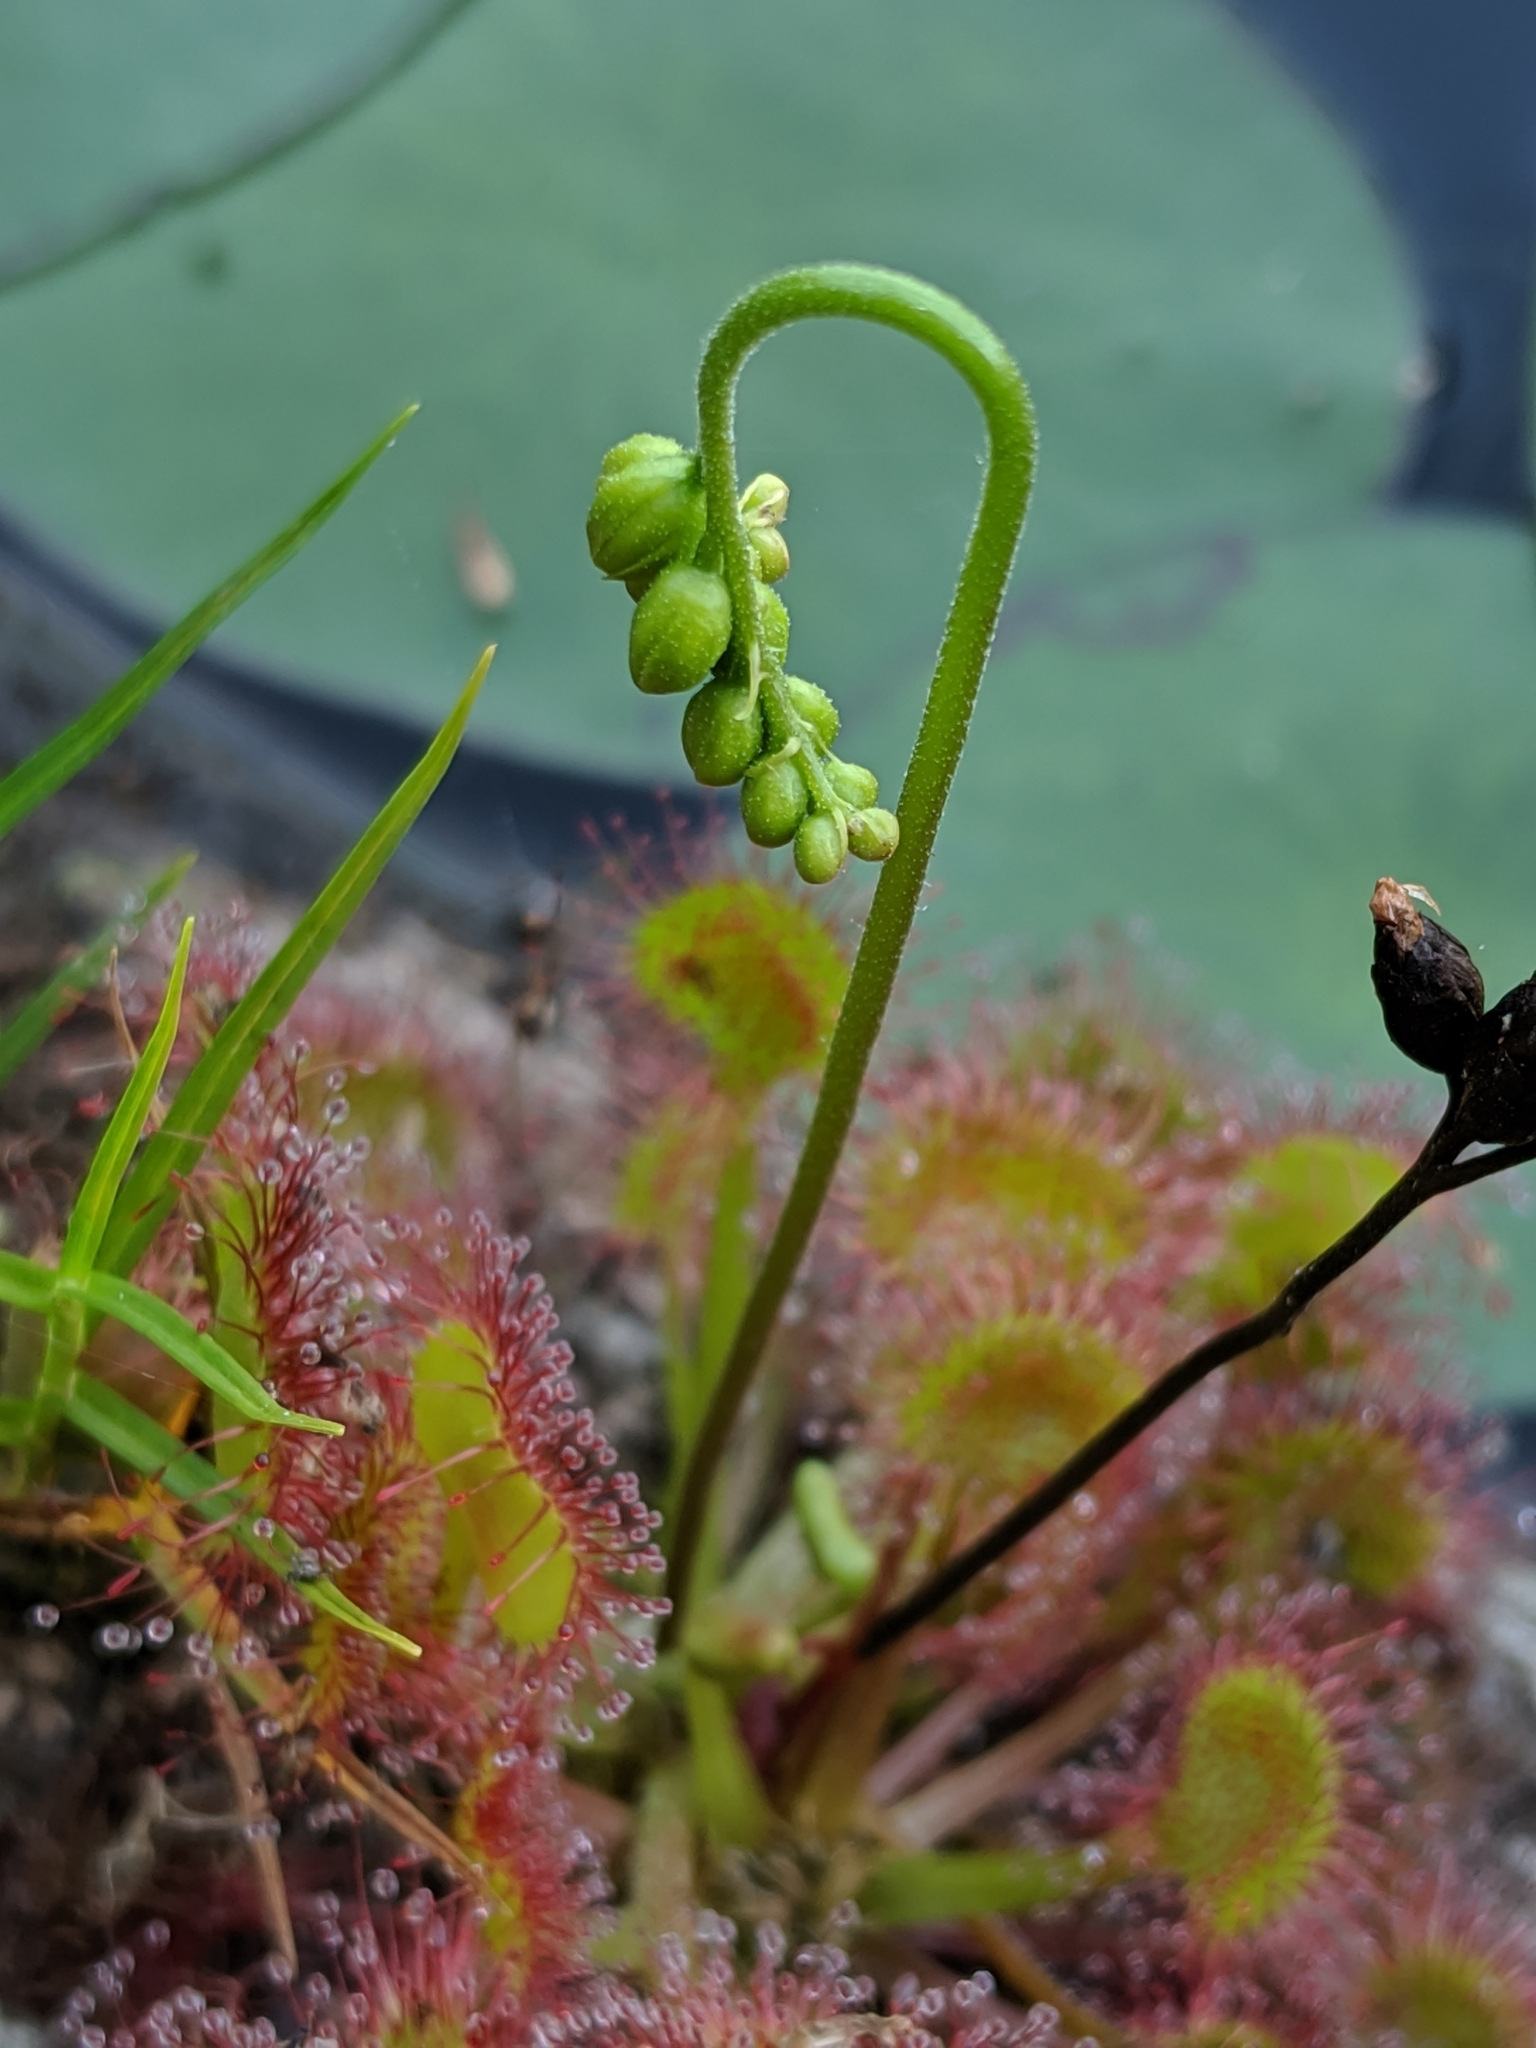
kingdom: Plantae
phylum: Tracheophyta
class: Magnoliopsida
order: Caryophyllales
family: Droseraceae
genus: Drosera
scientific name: Drosera rotundifolia
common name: Round-leaved sundew
